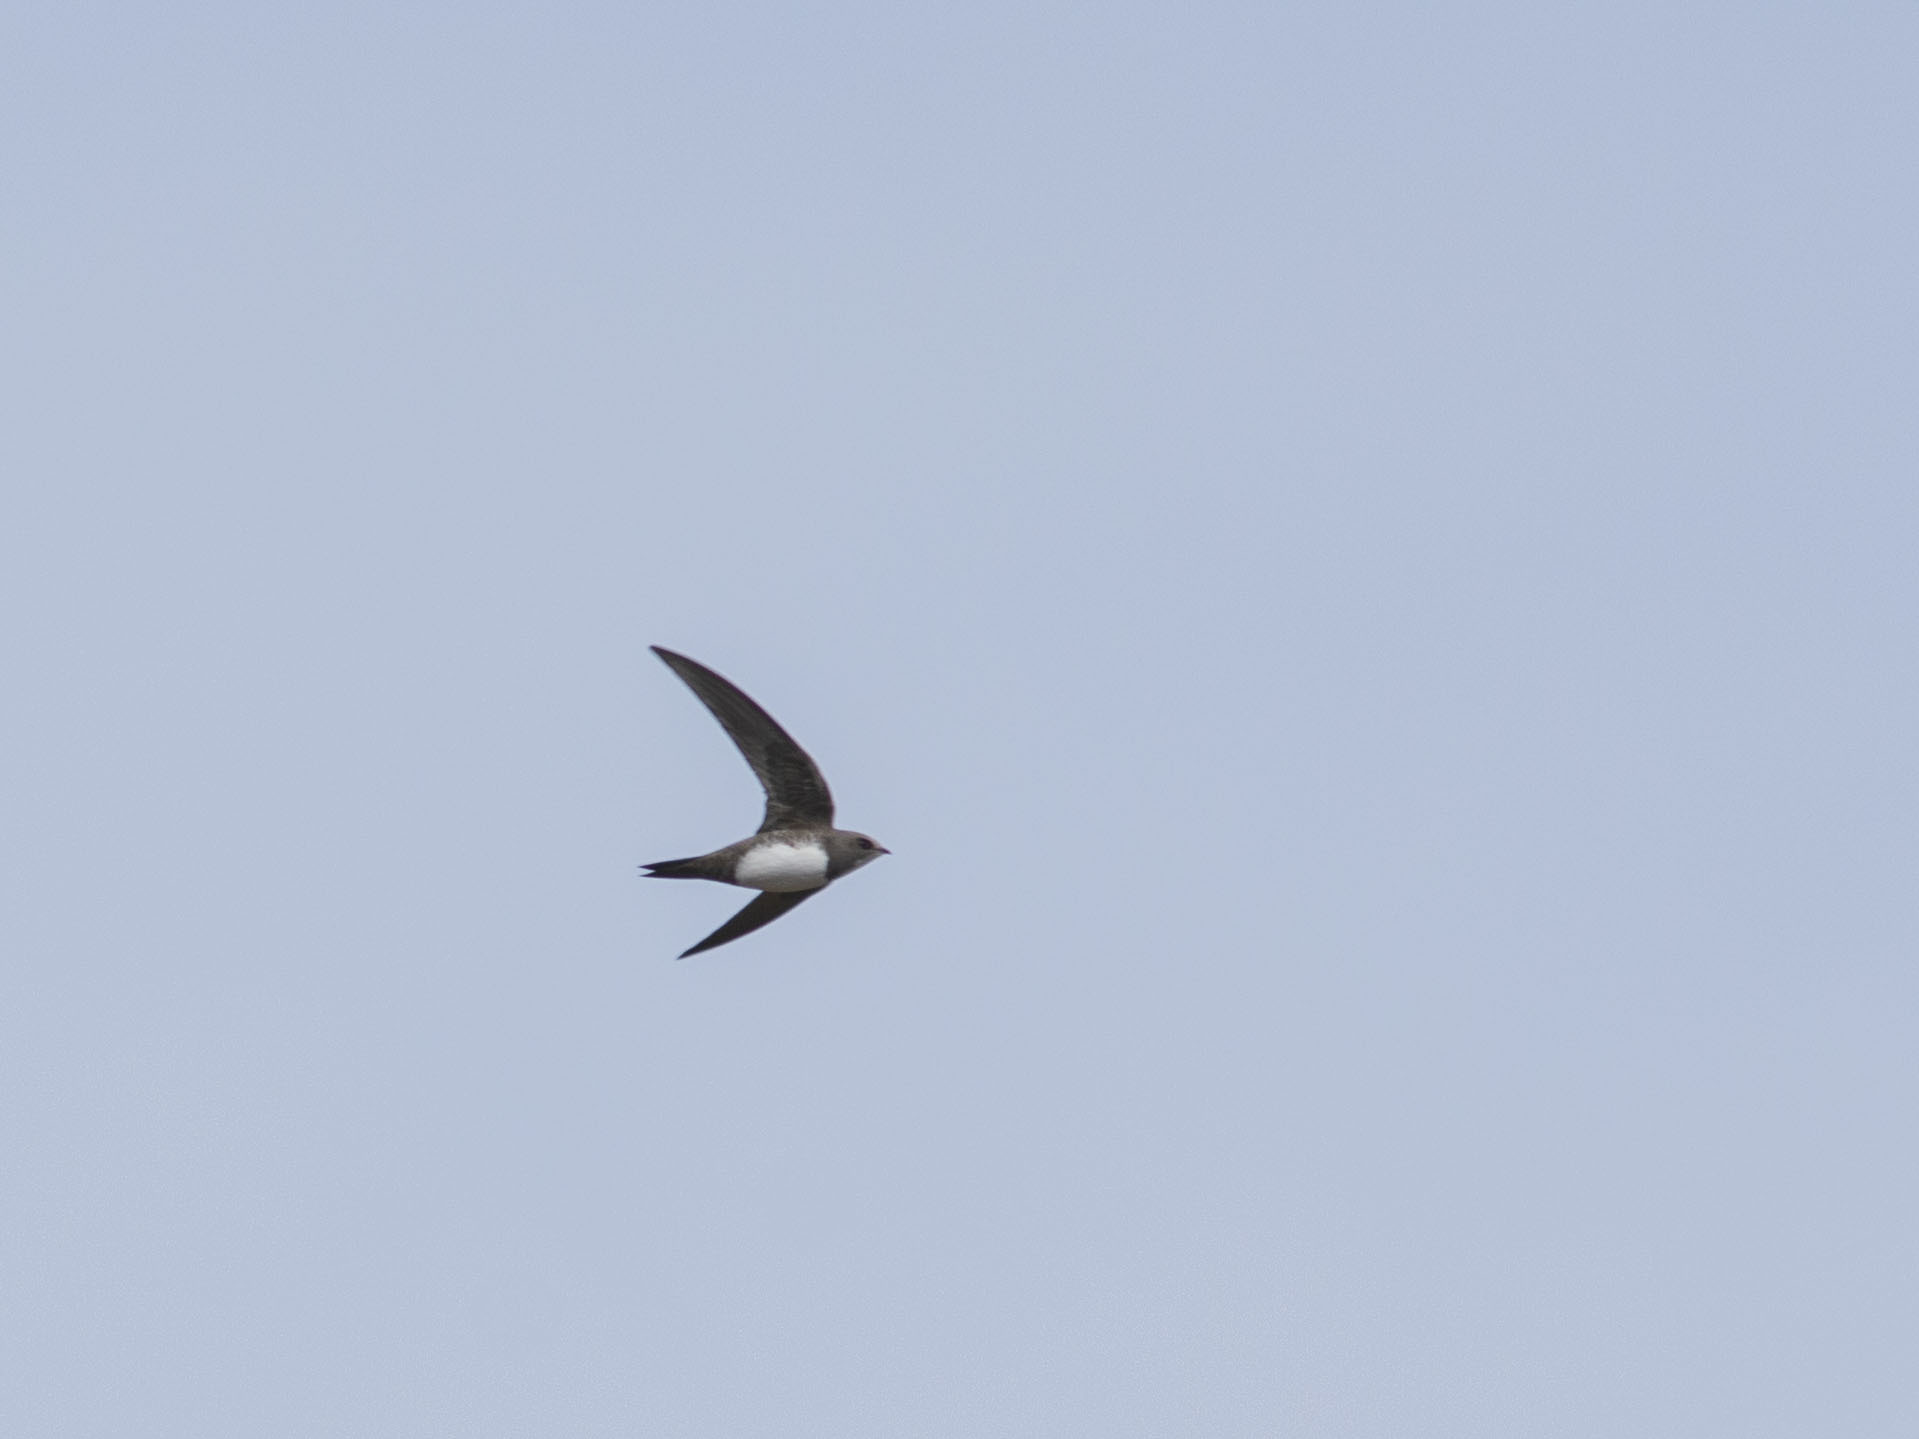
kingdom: Animalia
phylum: Chordata
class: Aves
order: Apodiformes
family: Apodidae
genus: Tachymarptis
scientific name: Tachymarptis melba
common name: Alpine swift
